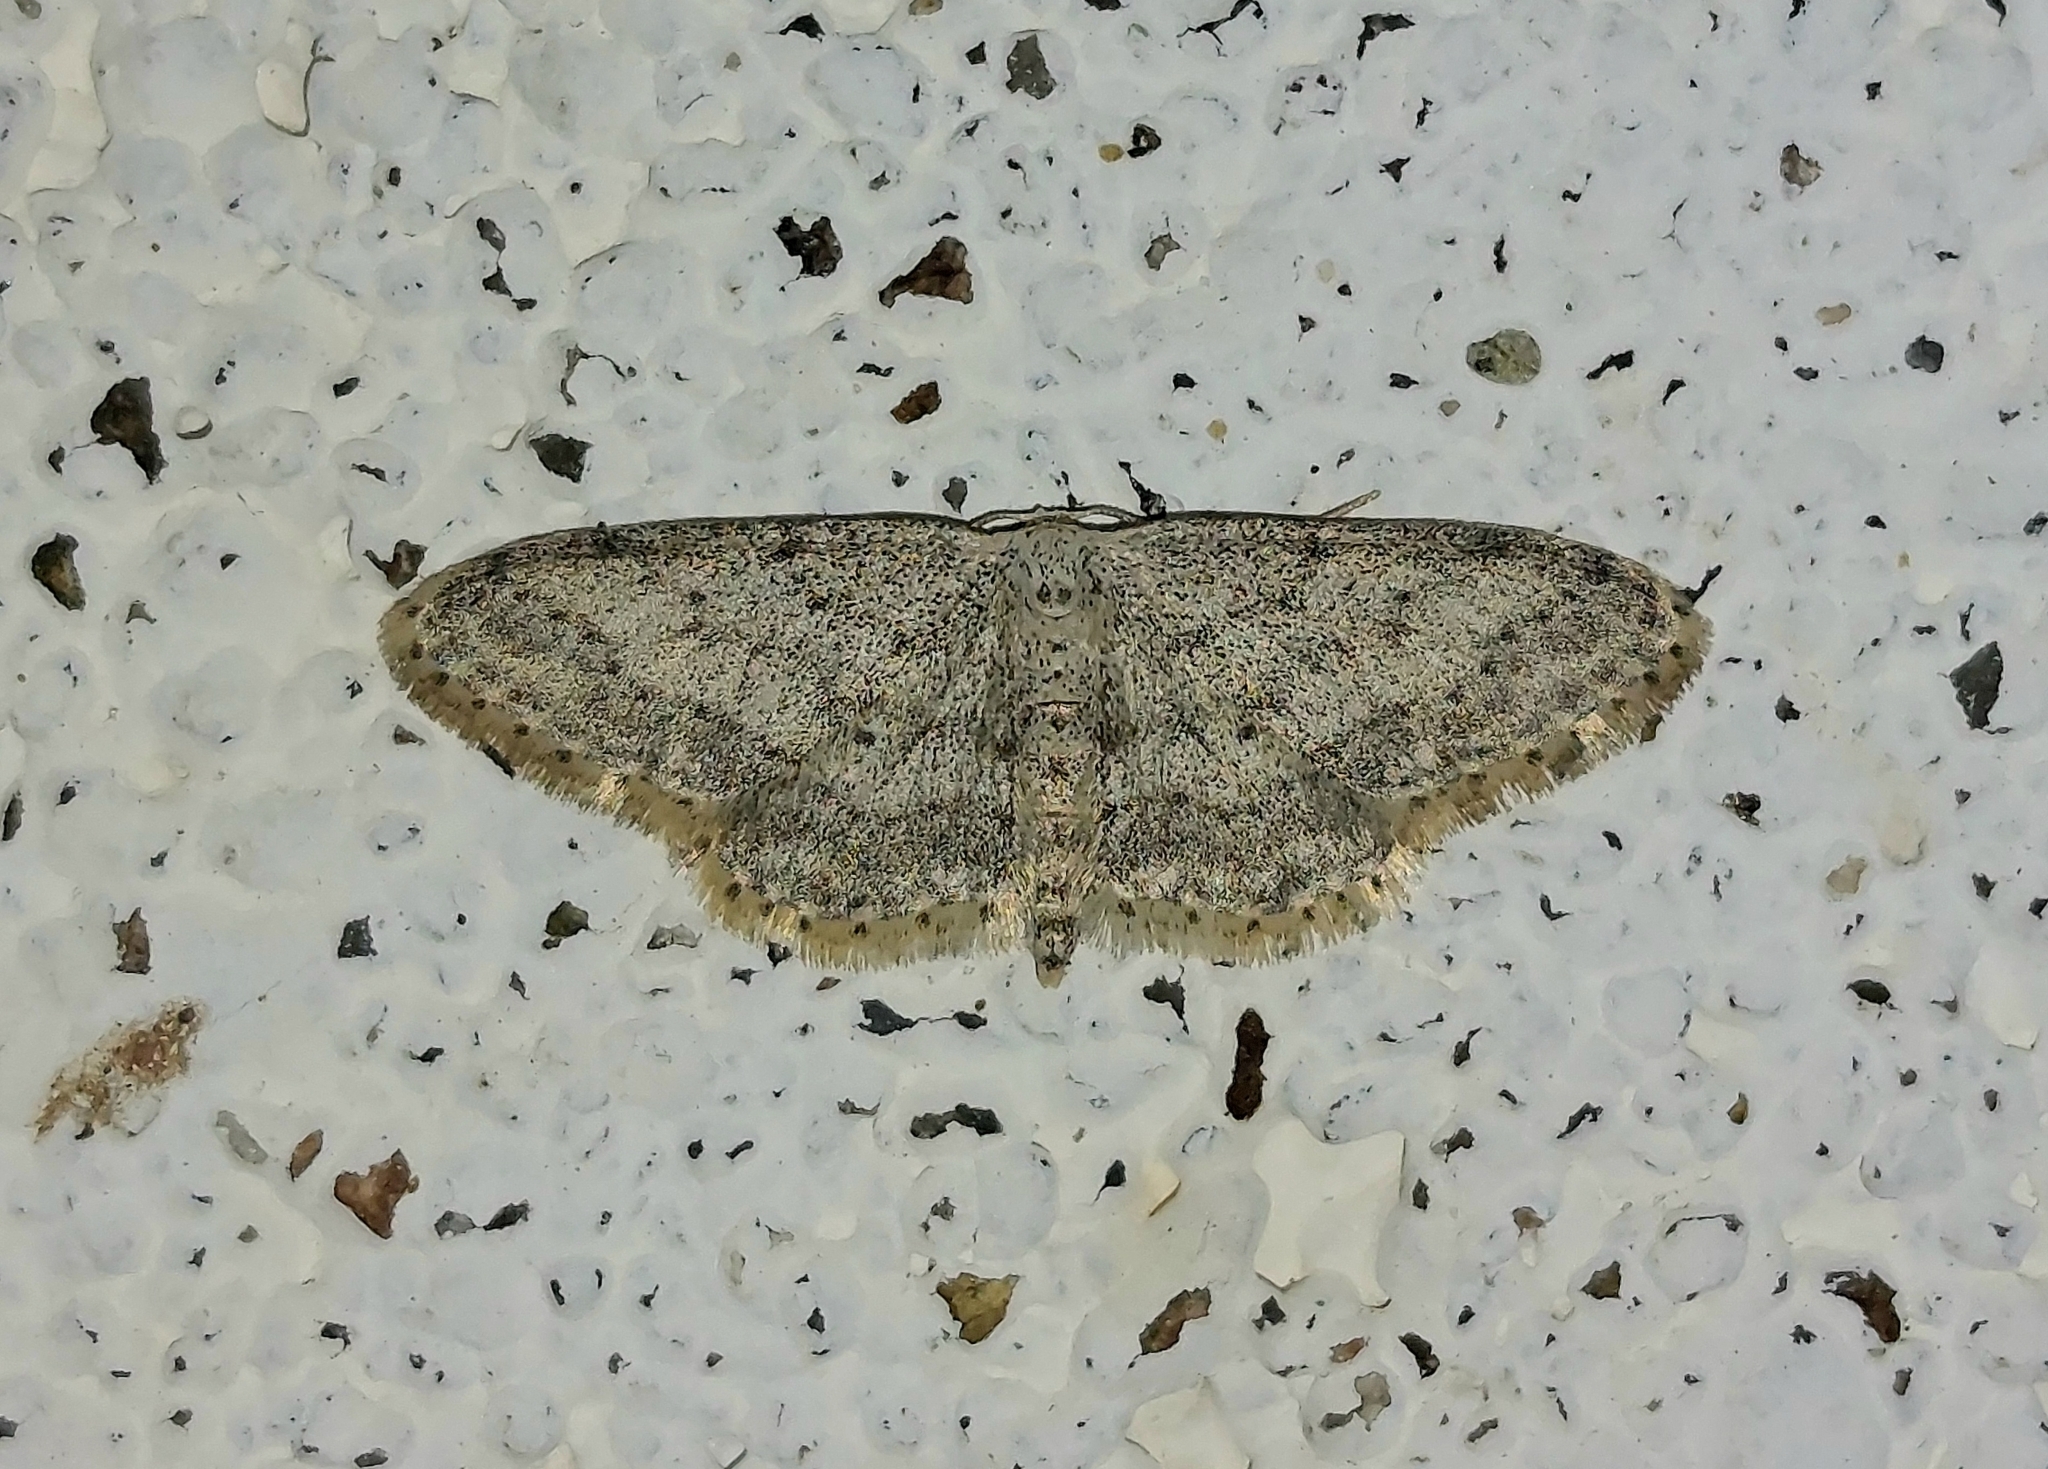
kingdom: Animalia
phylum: Arthropoda
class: Insecta
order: Lepidoptera
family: Geometridae
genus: Idaea
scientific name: Idaea seriata
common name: Small dusty wave
